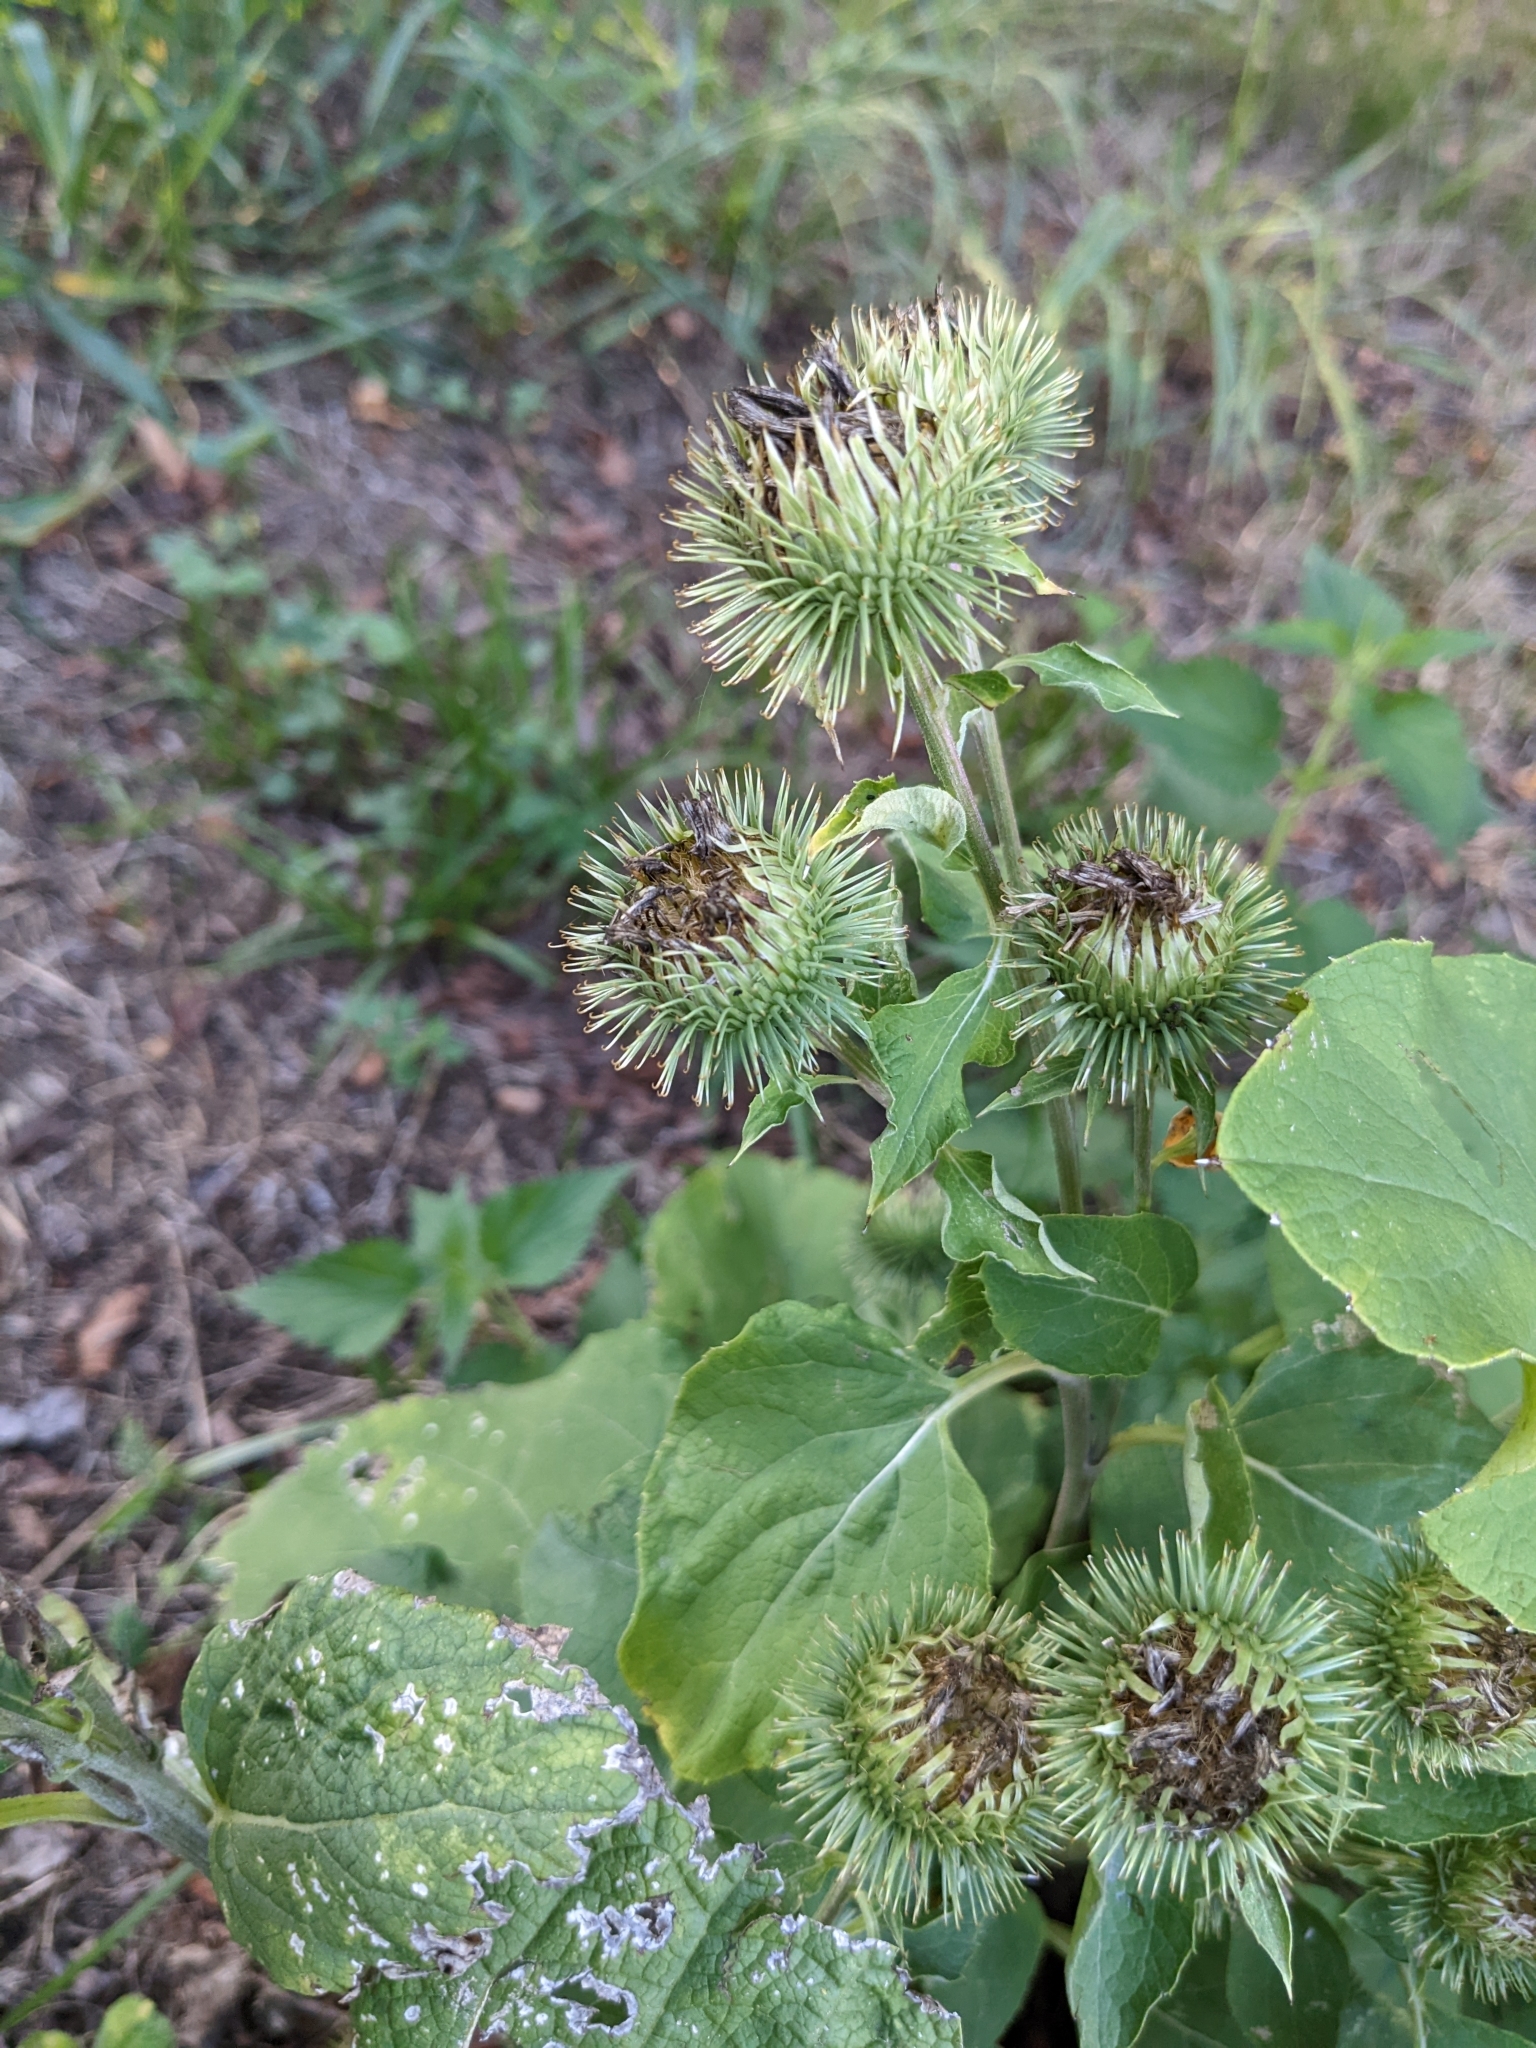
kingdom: Plantae
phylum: Tracheophyta
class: Magnoliopsida
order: Asterales
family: Asteraceae
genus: Arctium
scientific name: Arctium lappa
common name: Greater burdock
